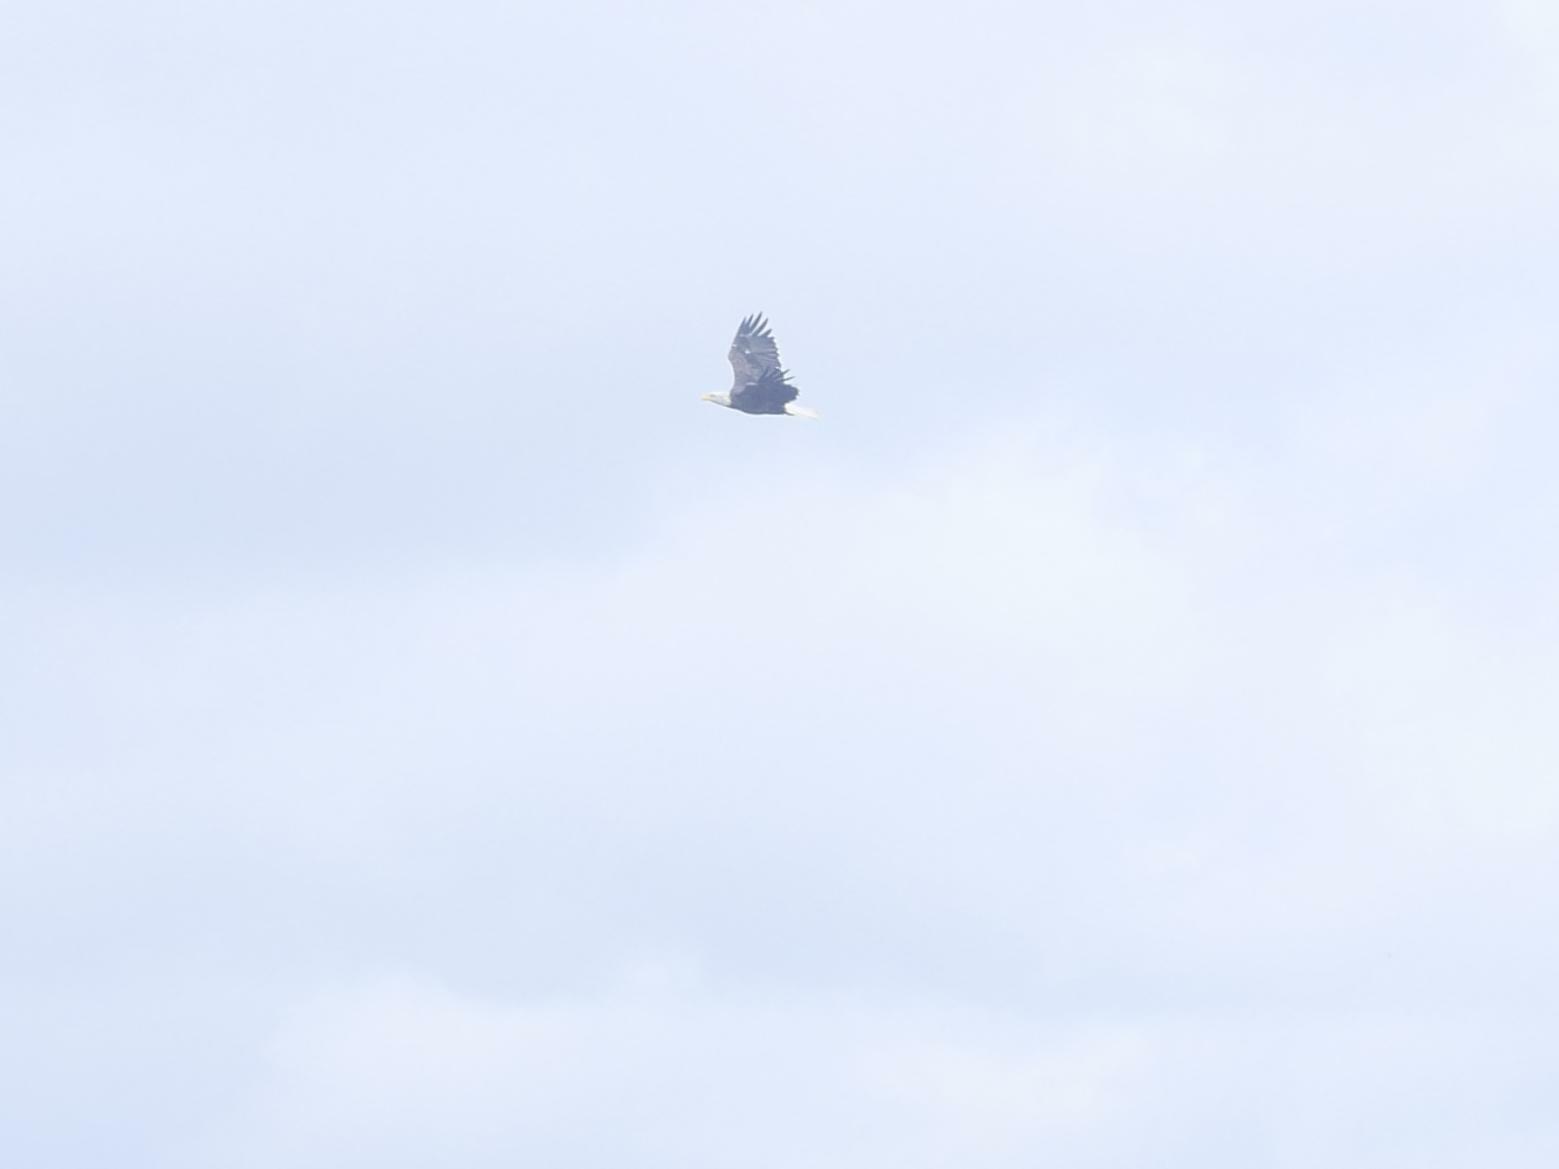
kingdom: Animalia
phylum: Chordata
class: Aves
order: Accipitriformes
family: Accipitridae
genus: Haliaeetus
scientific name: Haliaeetus leucocephalus
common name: Bald eagle
